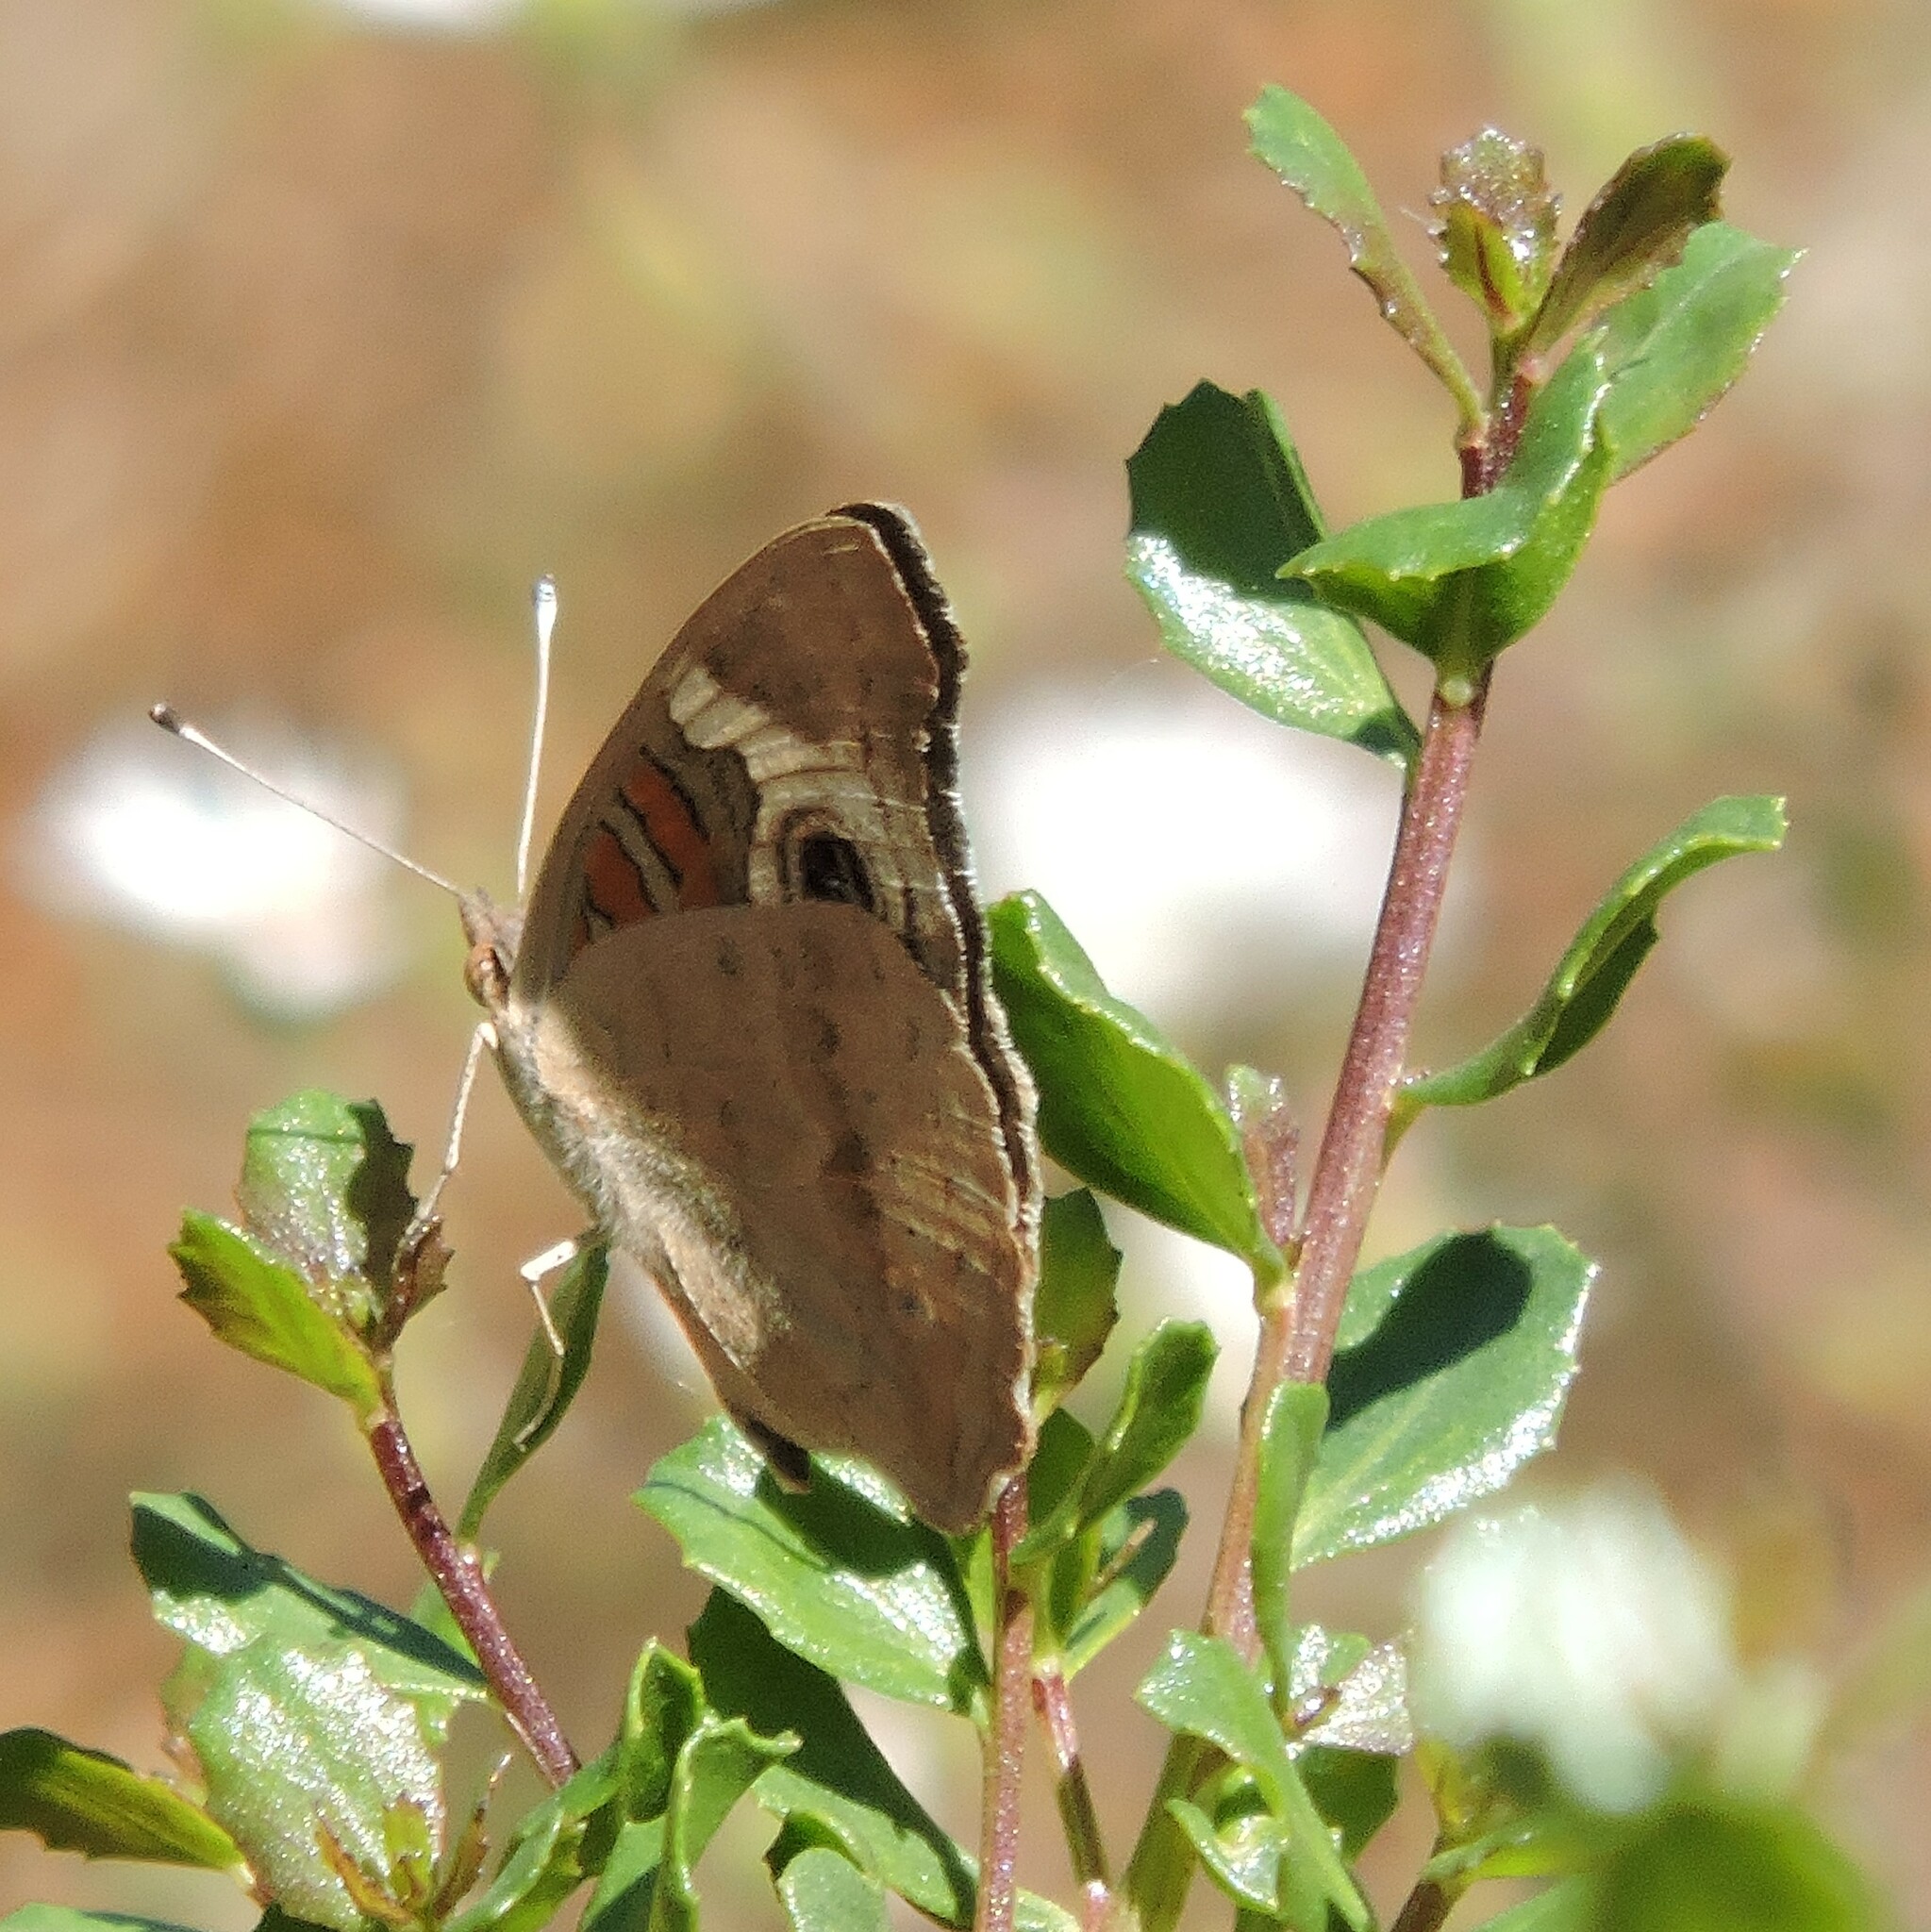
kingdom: Animalia
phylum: Arthropoda
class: Insecta
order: Lepidoptera
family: Nymphalidae
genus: Junonia
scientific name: Junonia grisea
